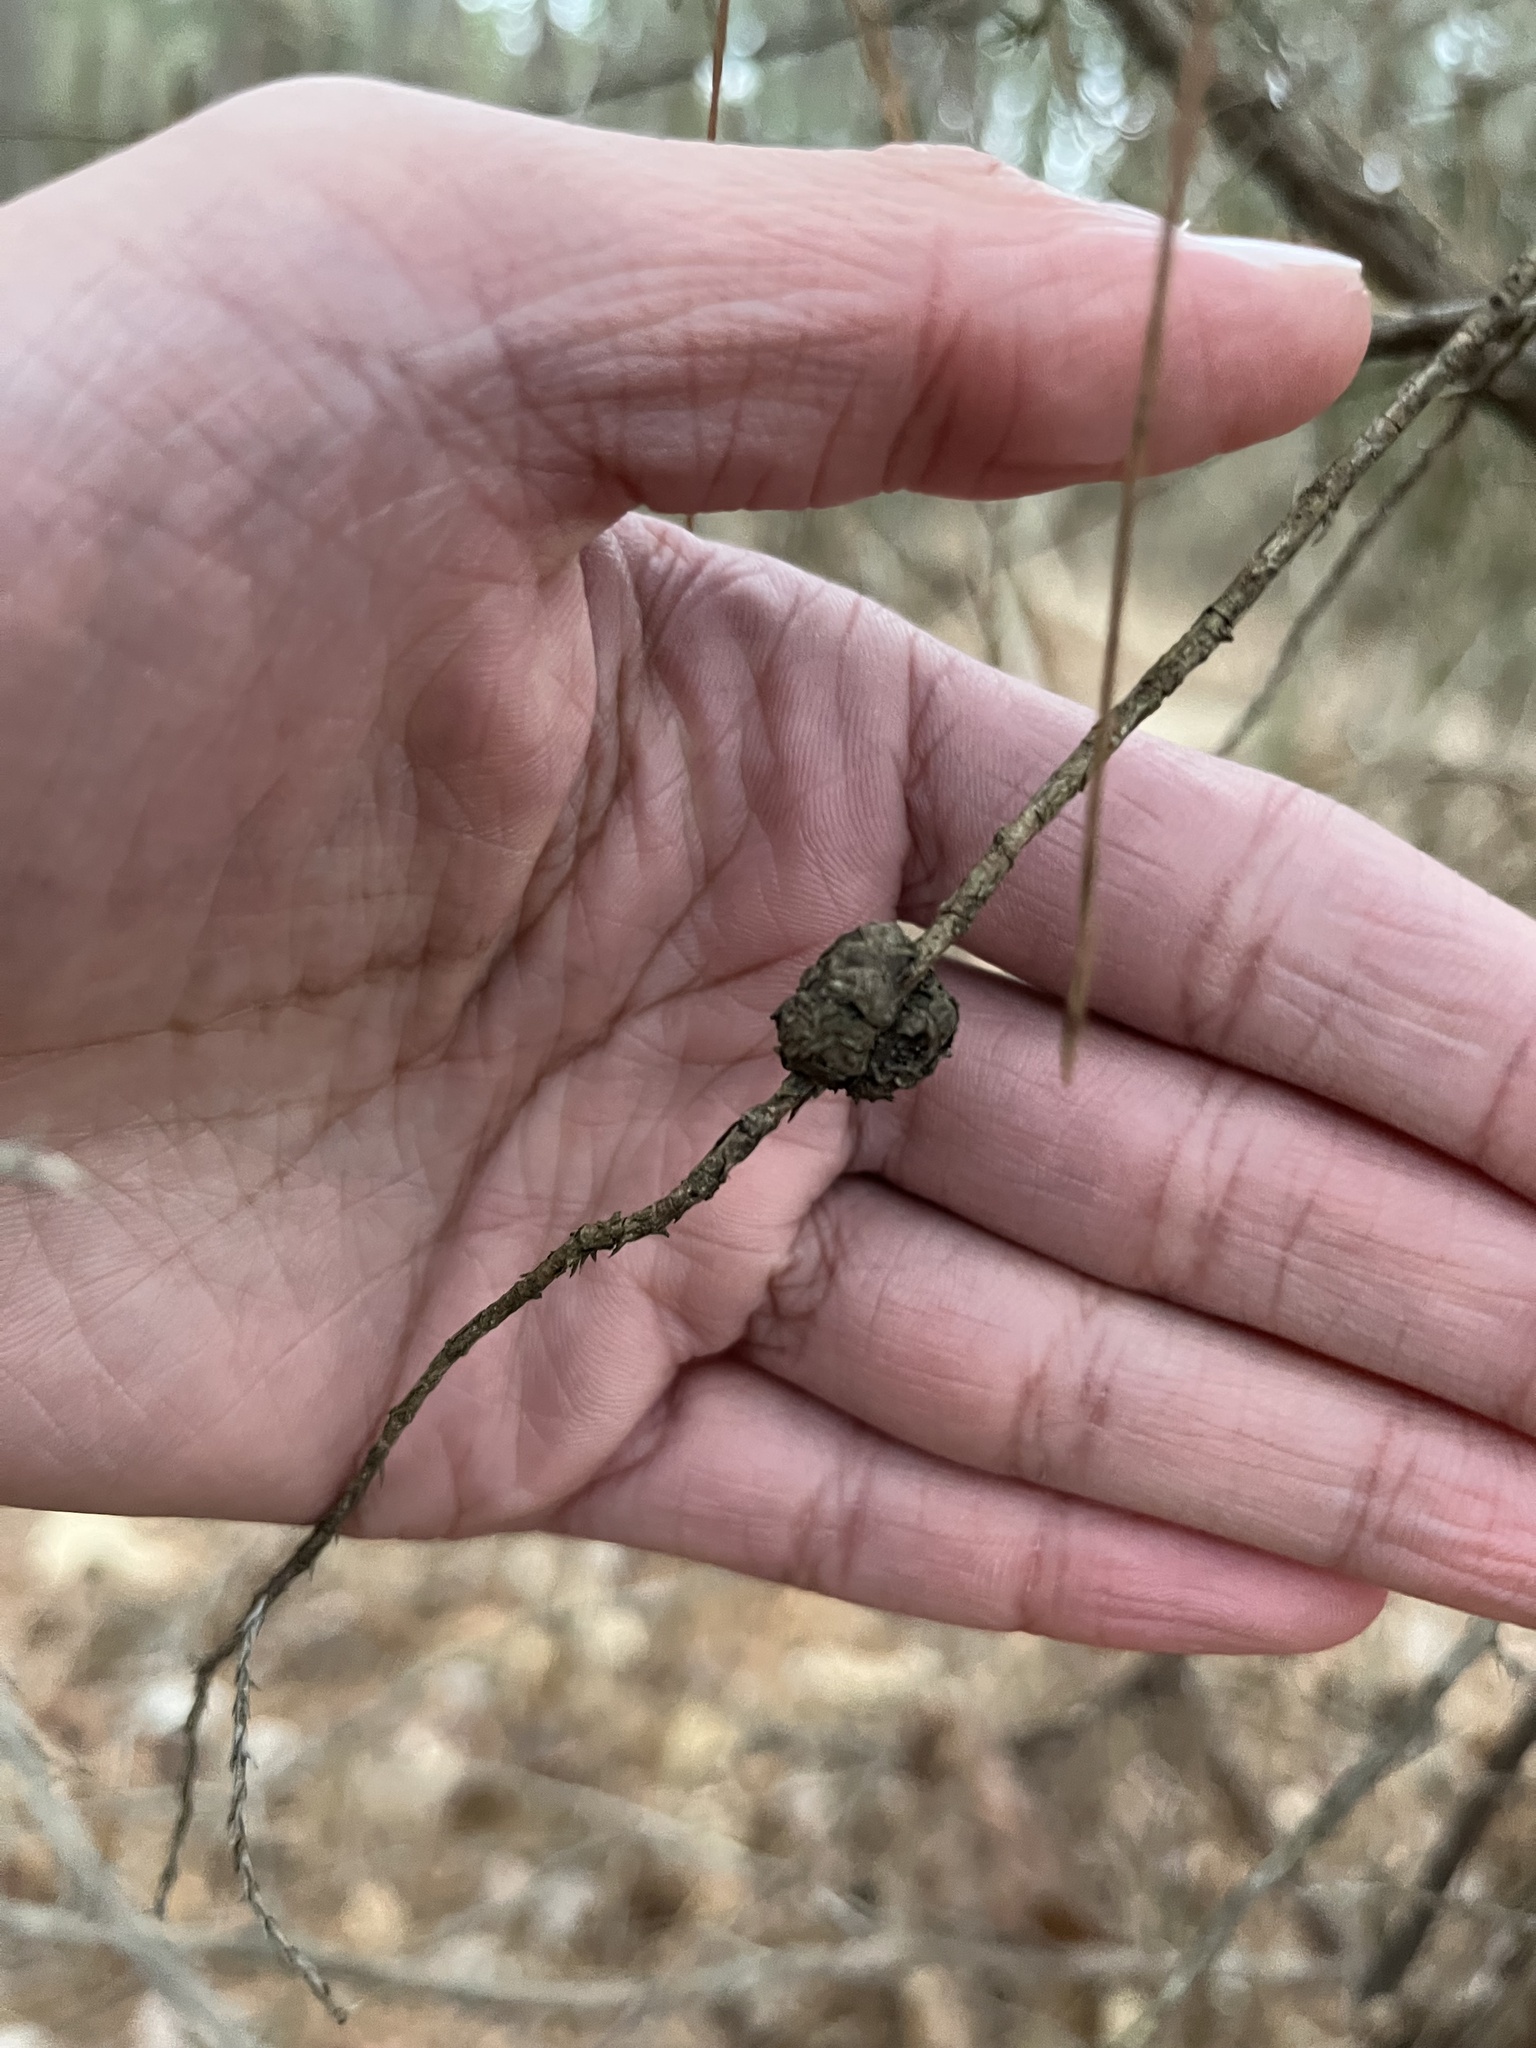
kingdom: Fungi
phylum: Basidiomycota
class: Pucciniomycetes
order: Pucciniales
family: Gymnosporangiaceae
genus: Gymnosporangium
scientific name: Gymnosporangium juniperi-virginianae
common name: Juniper-apple rust
